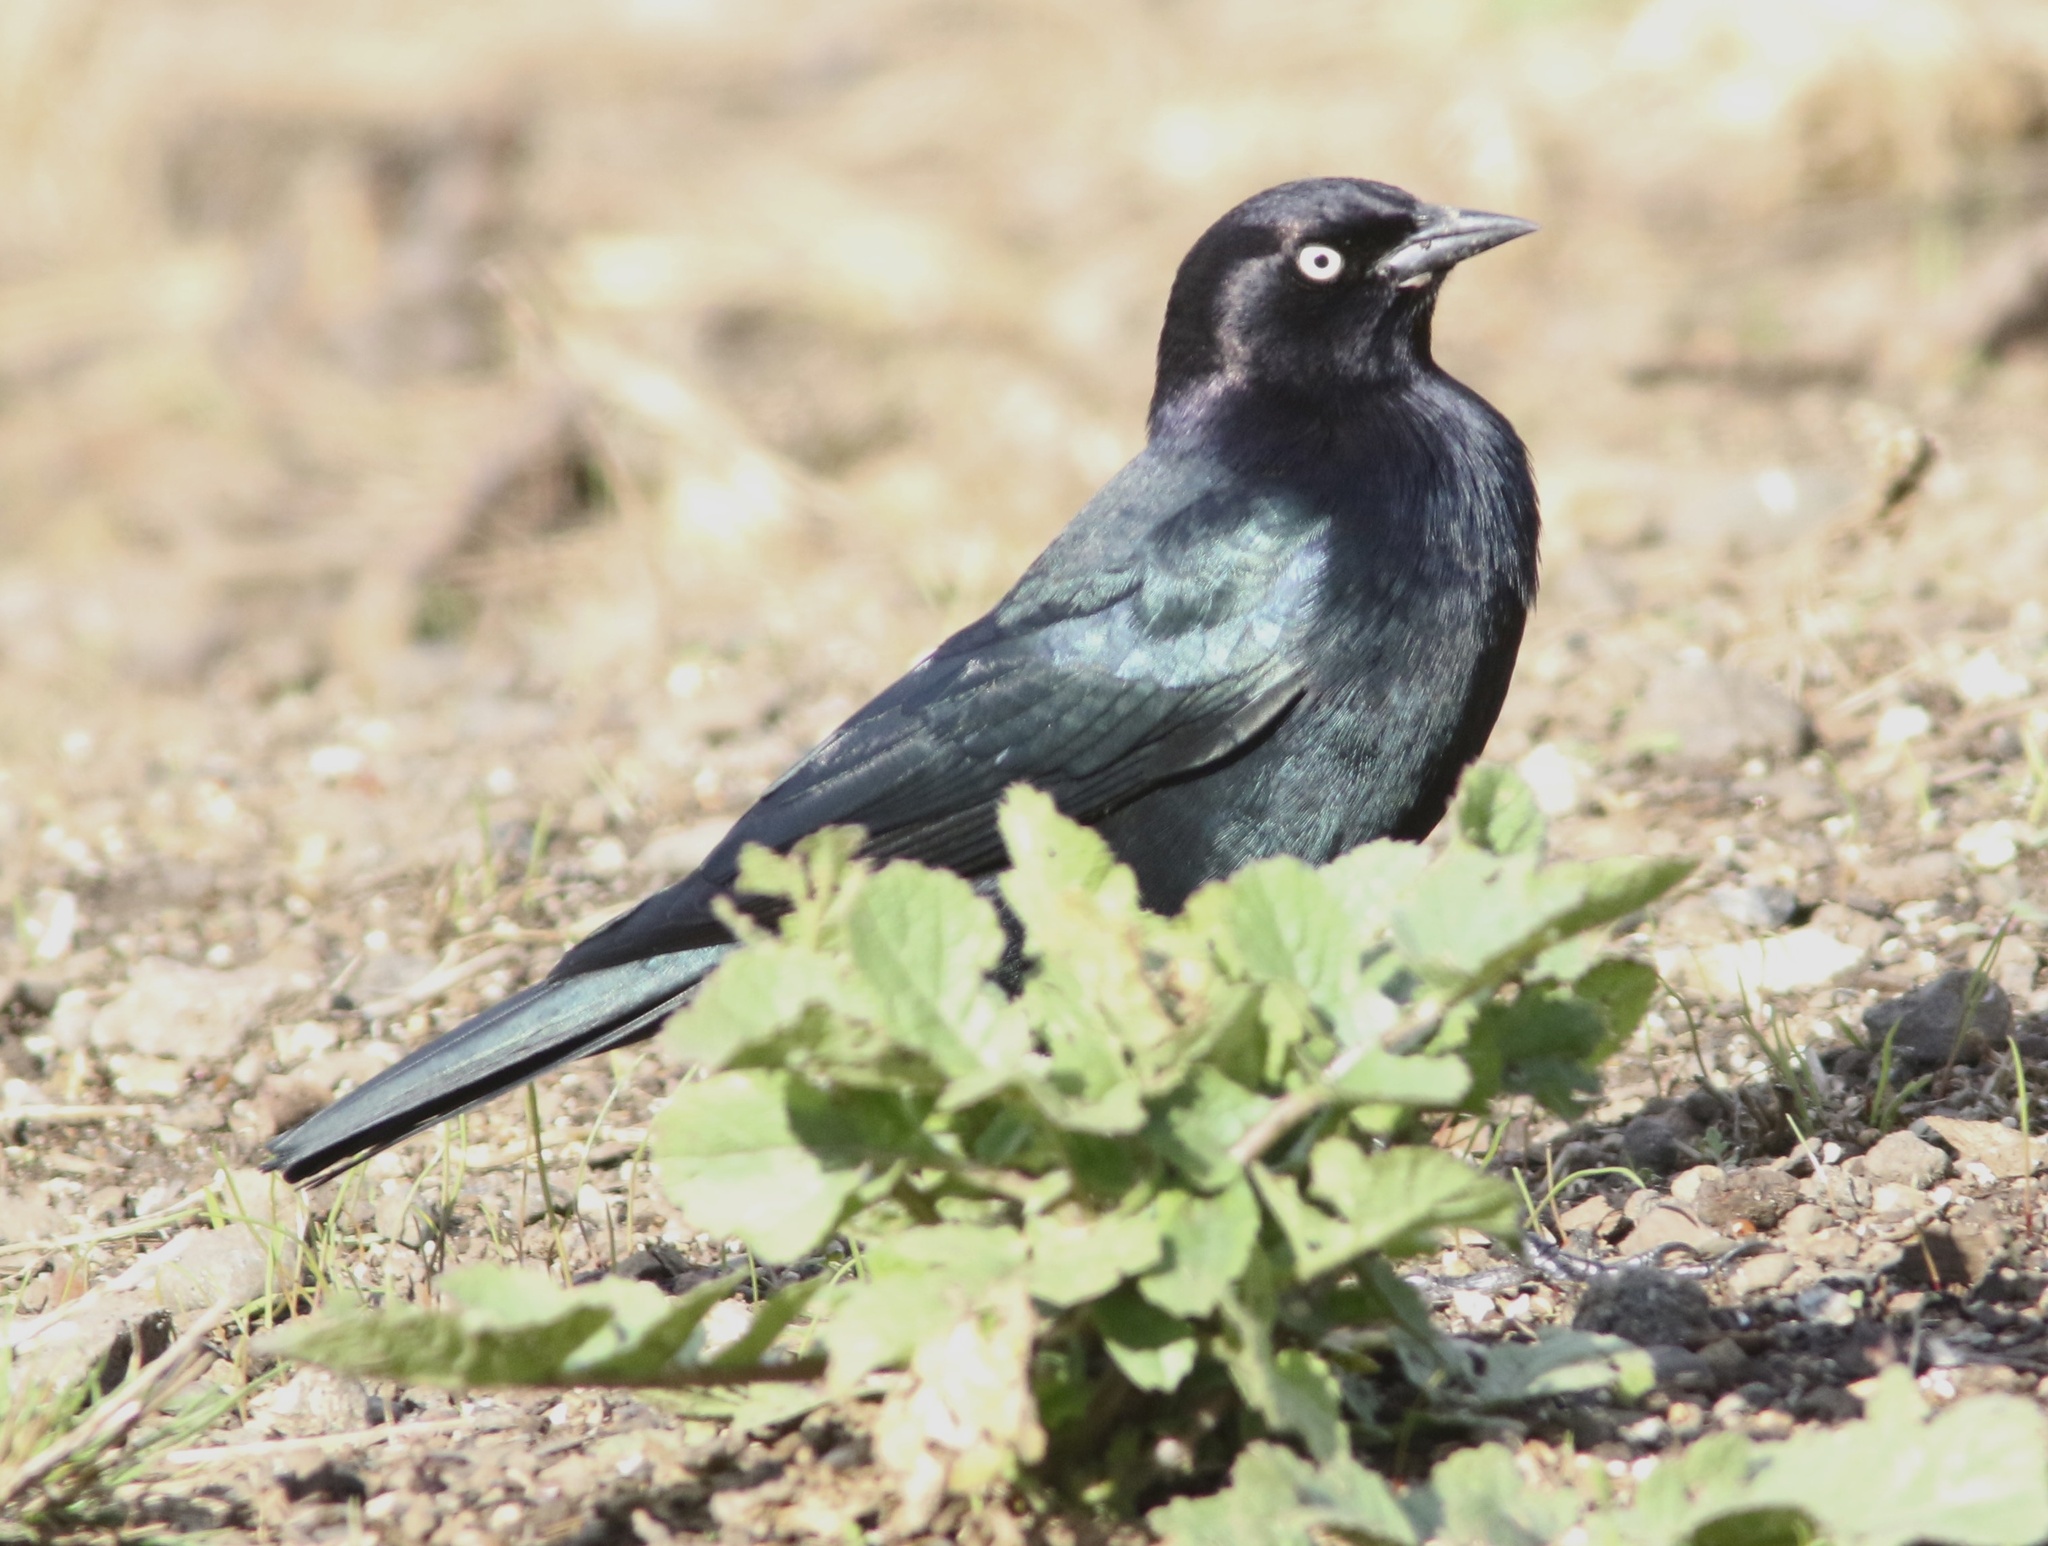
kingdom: Animalia
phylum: Chordata
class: Aves
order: Passeriformes
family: Icteridae
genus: Euphagus
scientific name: Euphagus cyanocephalus
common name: Brewer's blackbird
